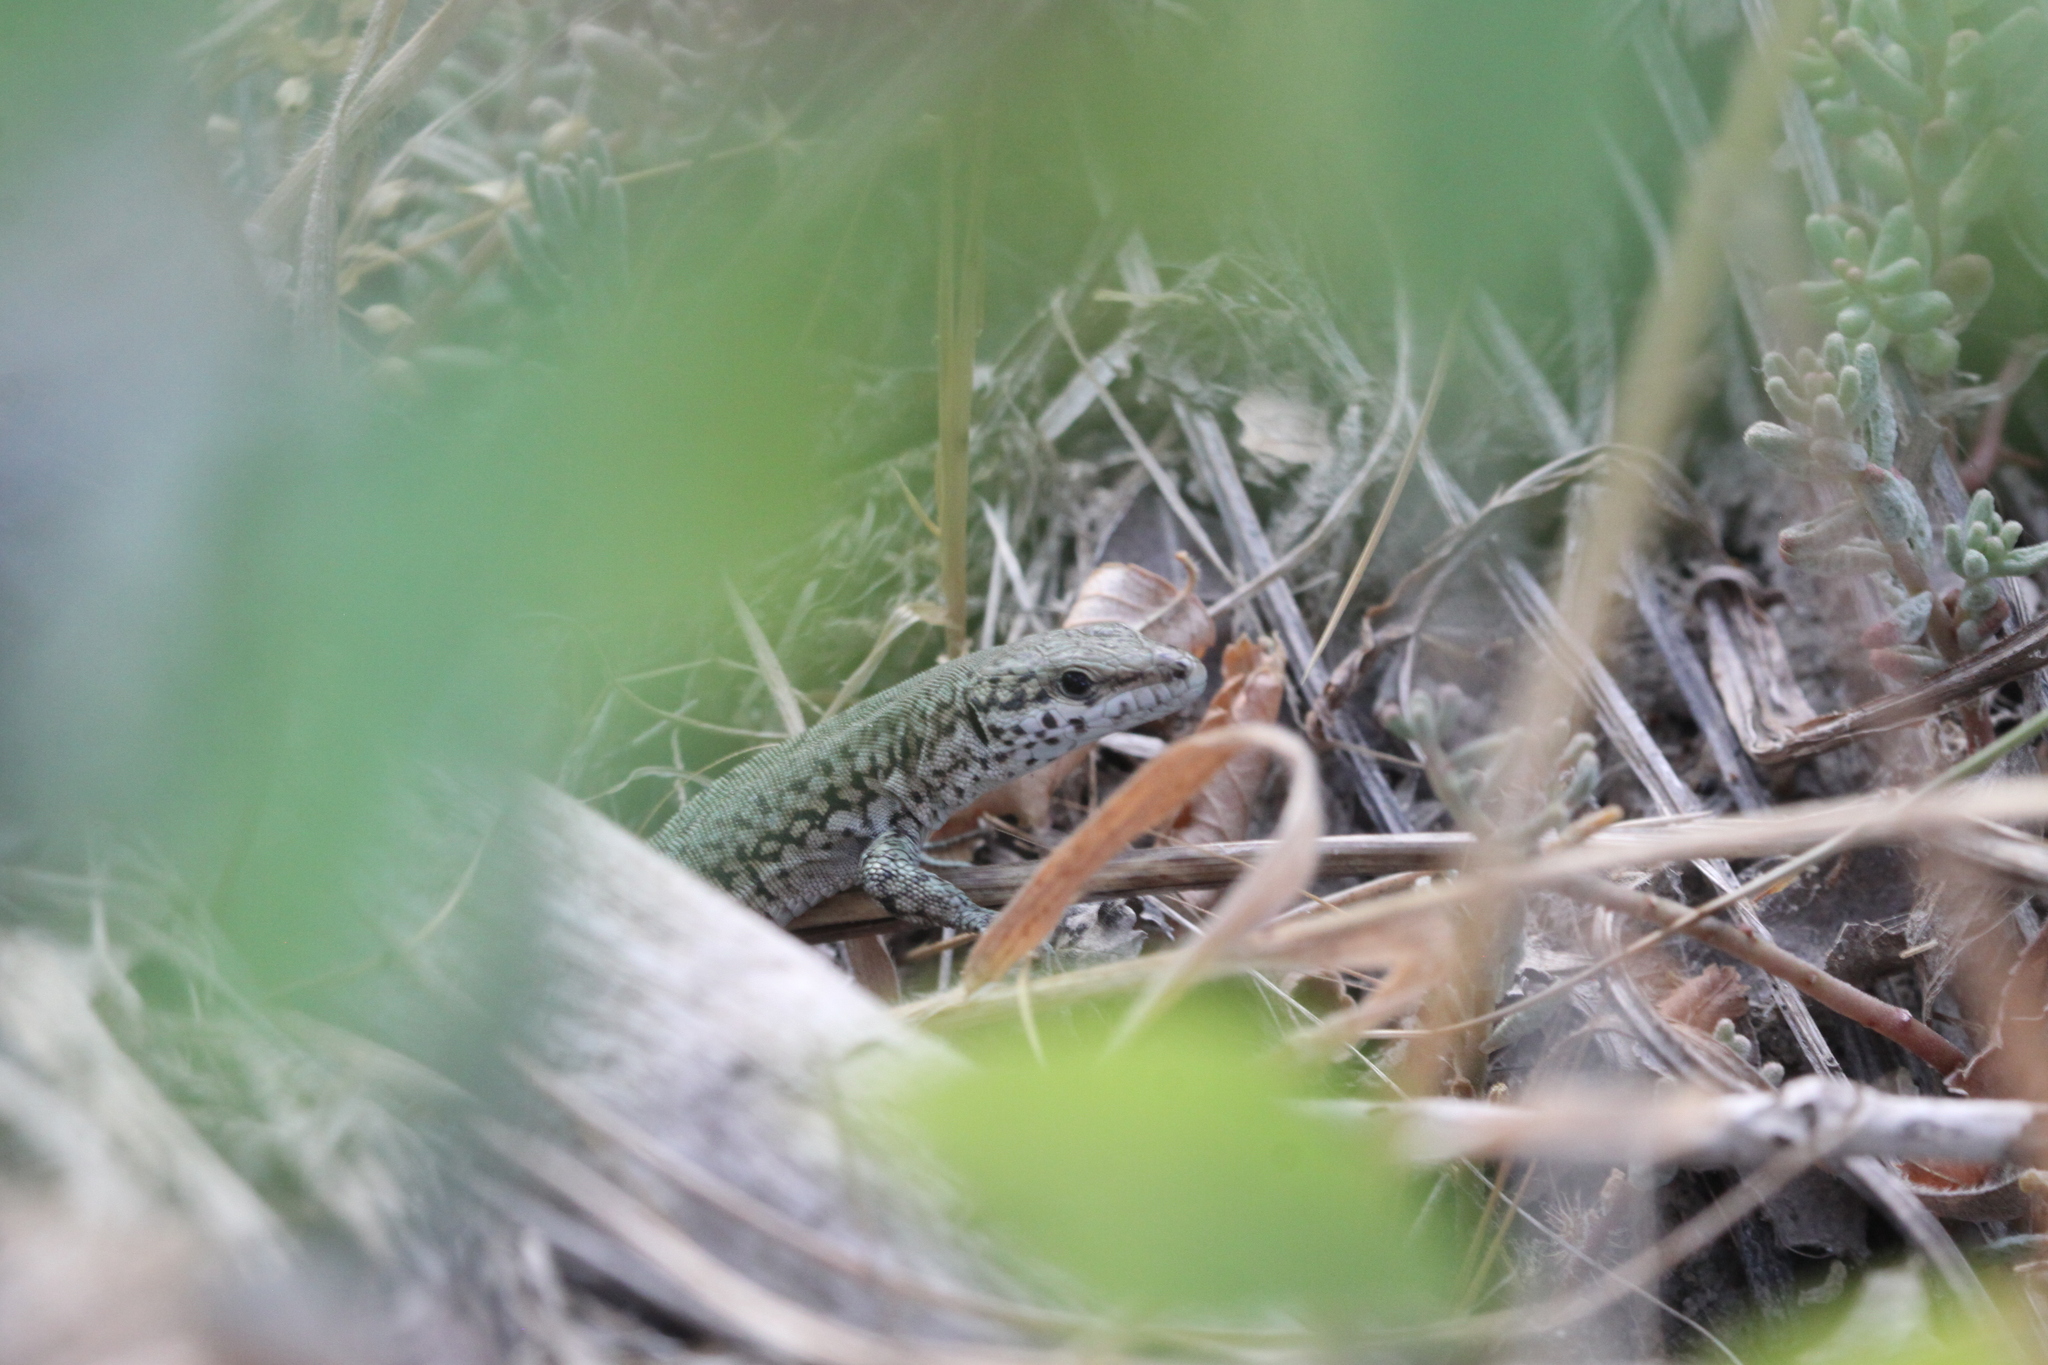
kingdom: Animalia
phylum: Chordata
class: Squamata
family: Lacertidae
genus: Podarcis
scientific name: Podarcis liolepis
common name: Catalonian wall lizard
